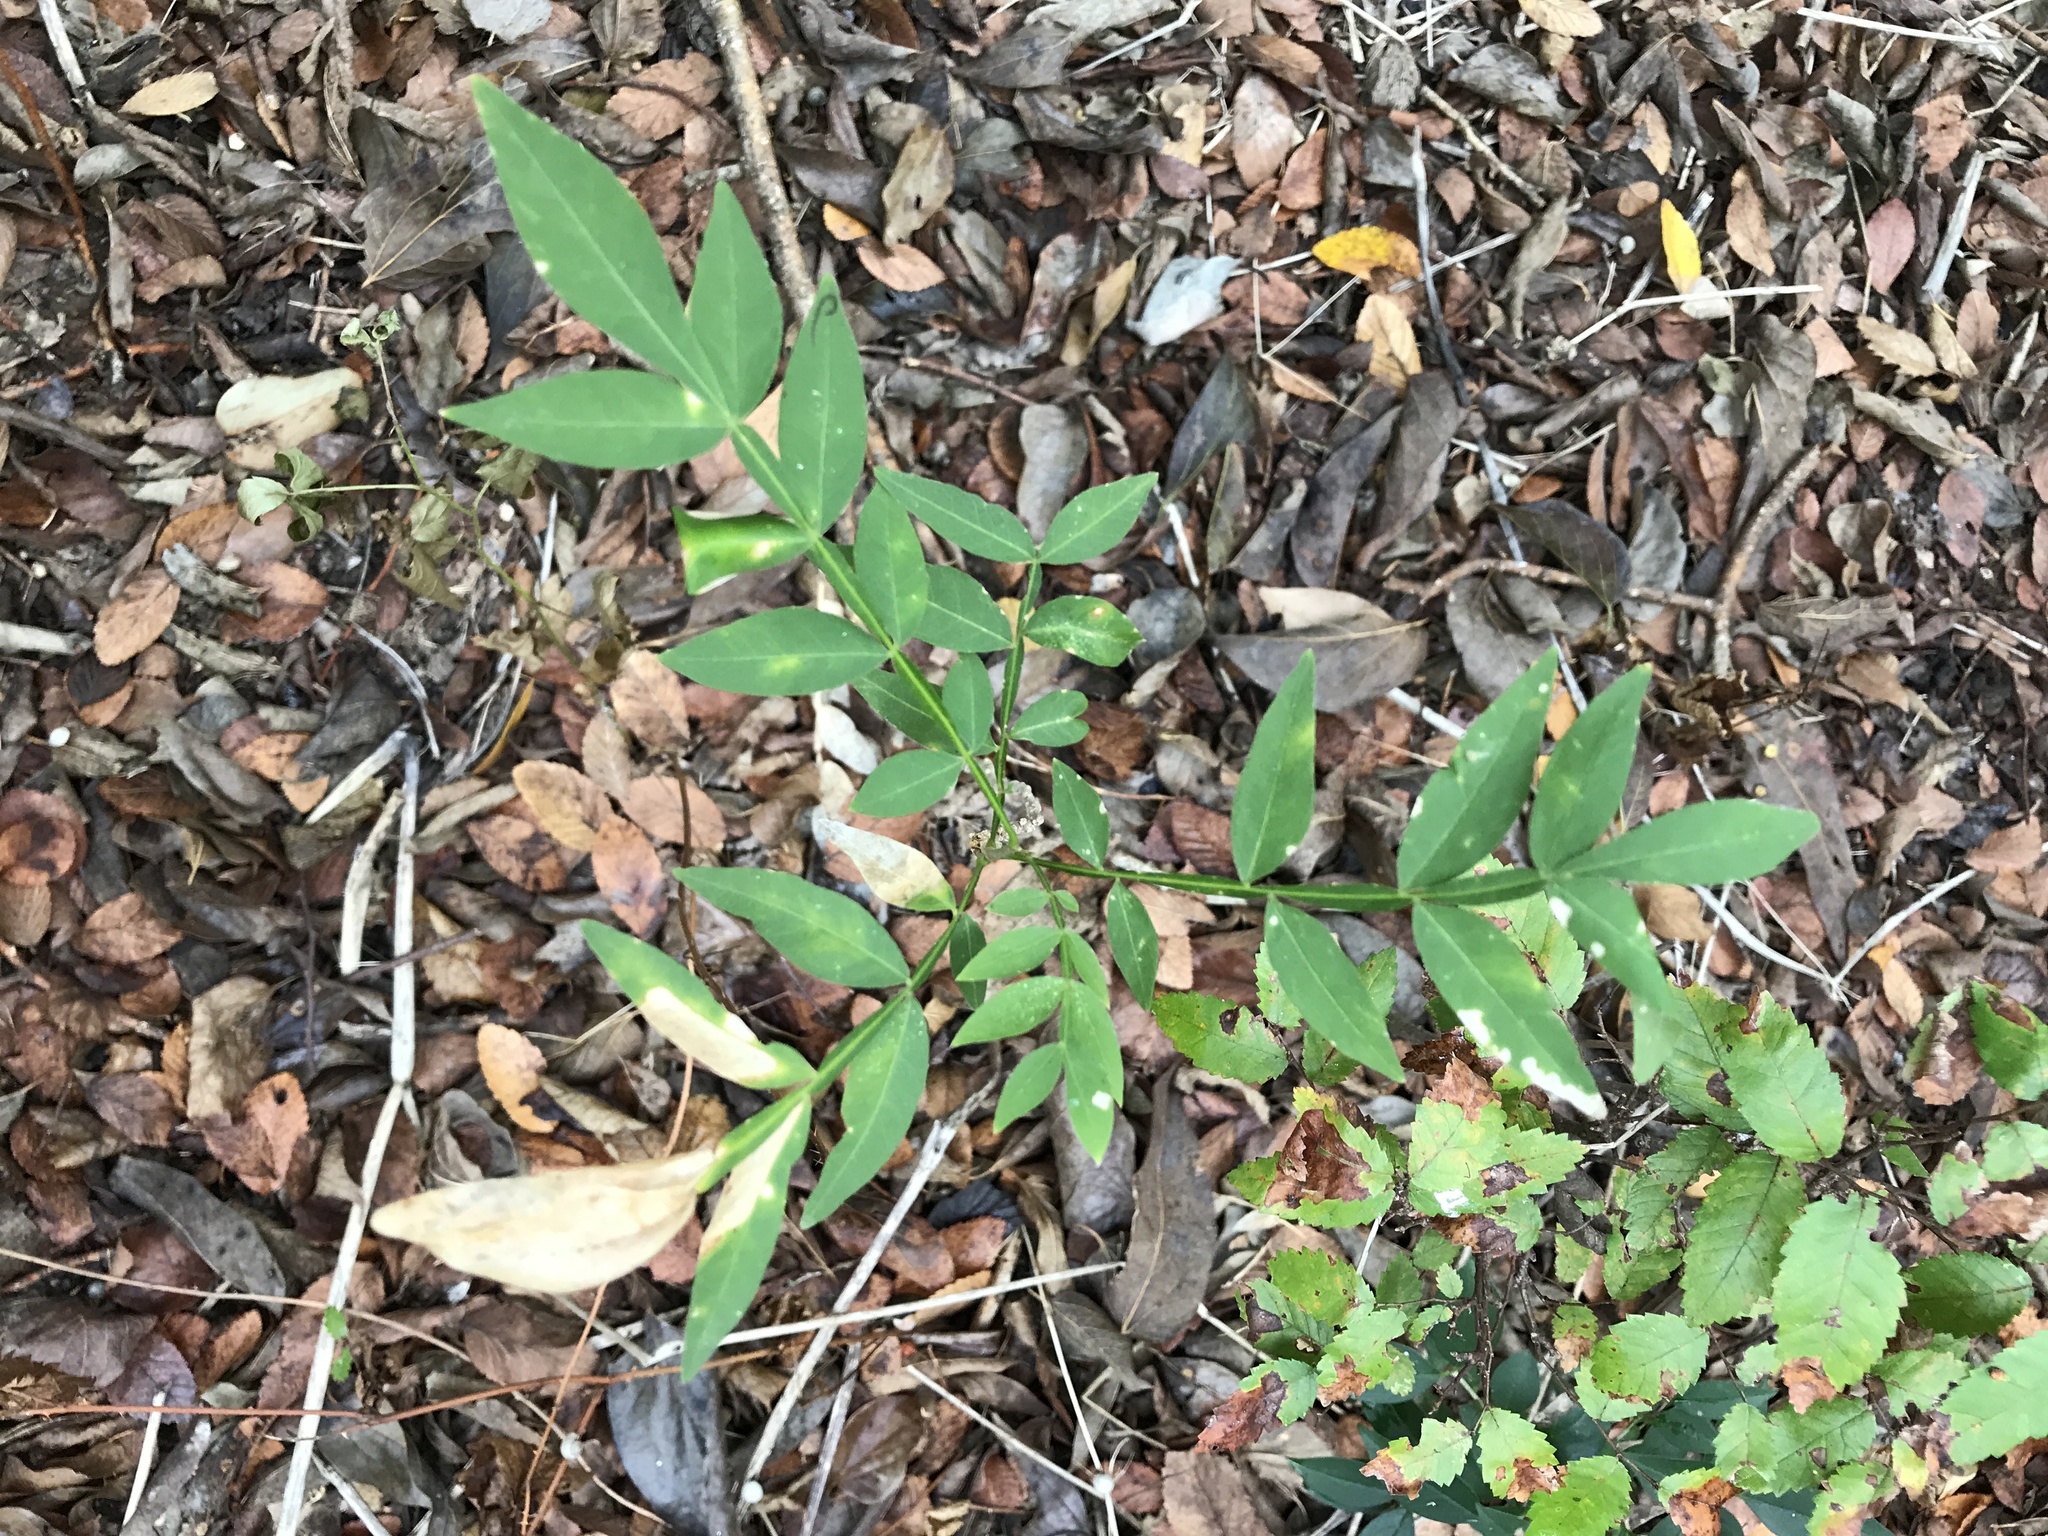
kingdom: Plantae
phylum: Tracheophyta
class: Magnoliopsida
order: Sapindales
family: Sapindaceae
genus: Sapindus
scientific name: Sapindus drummondii
